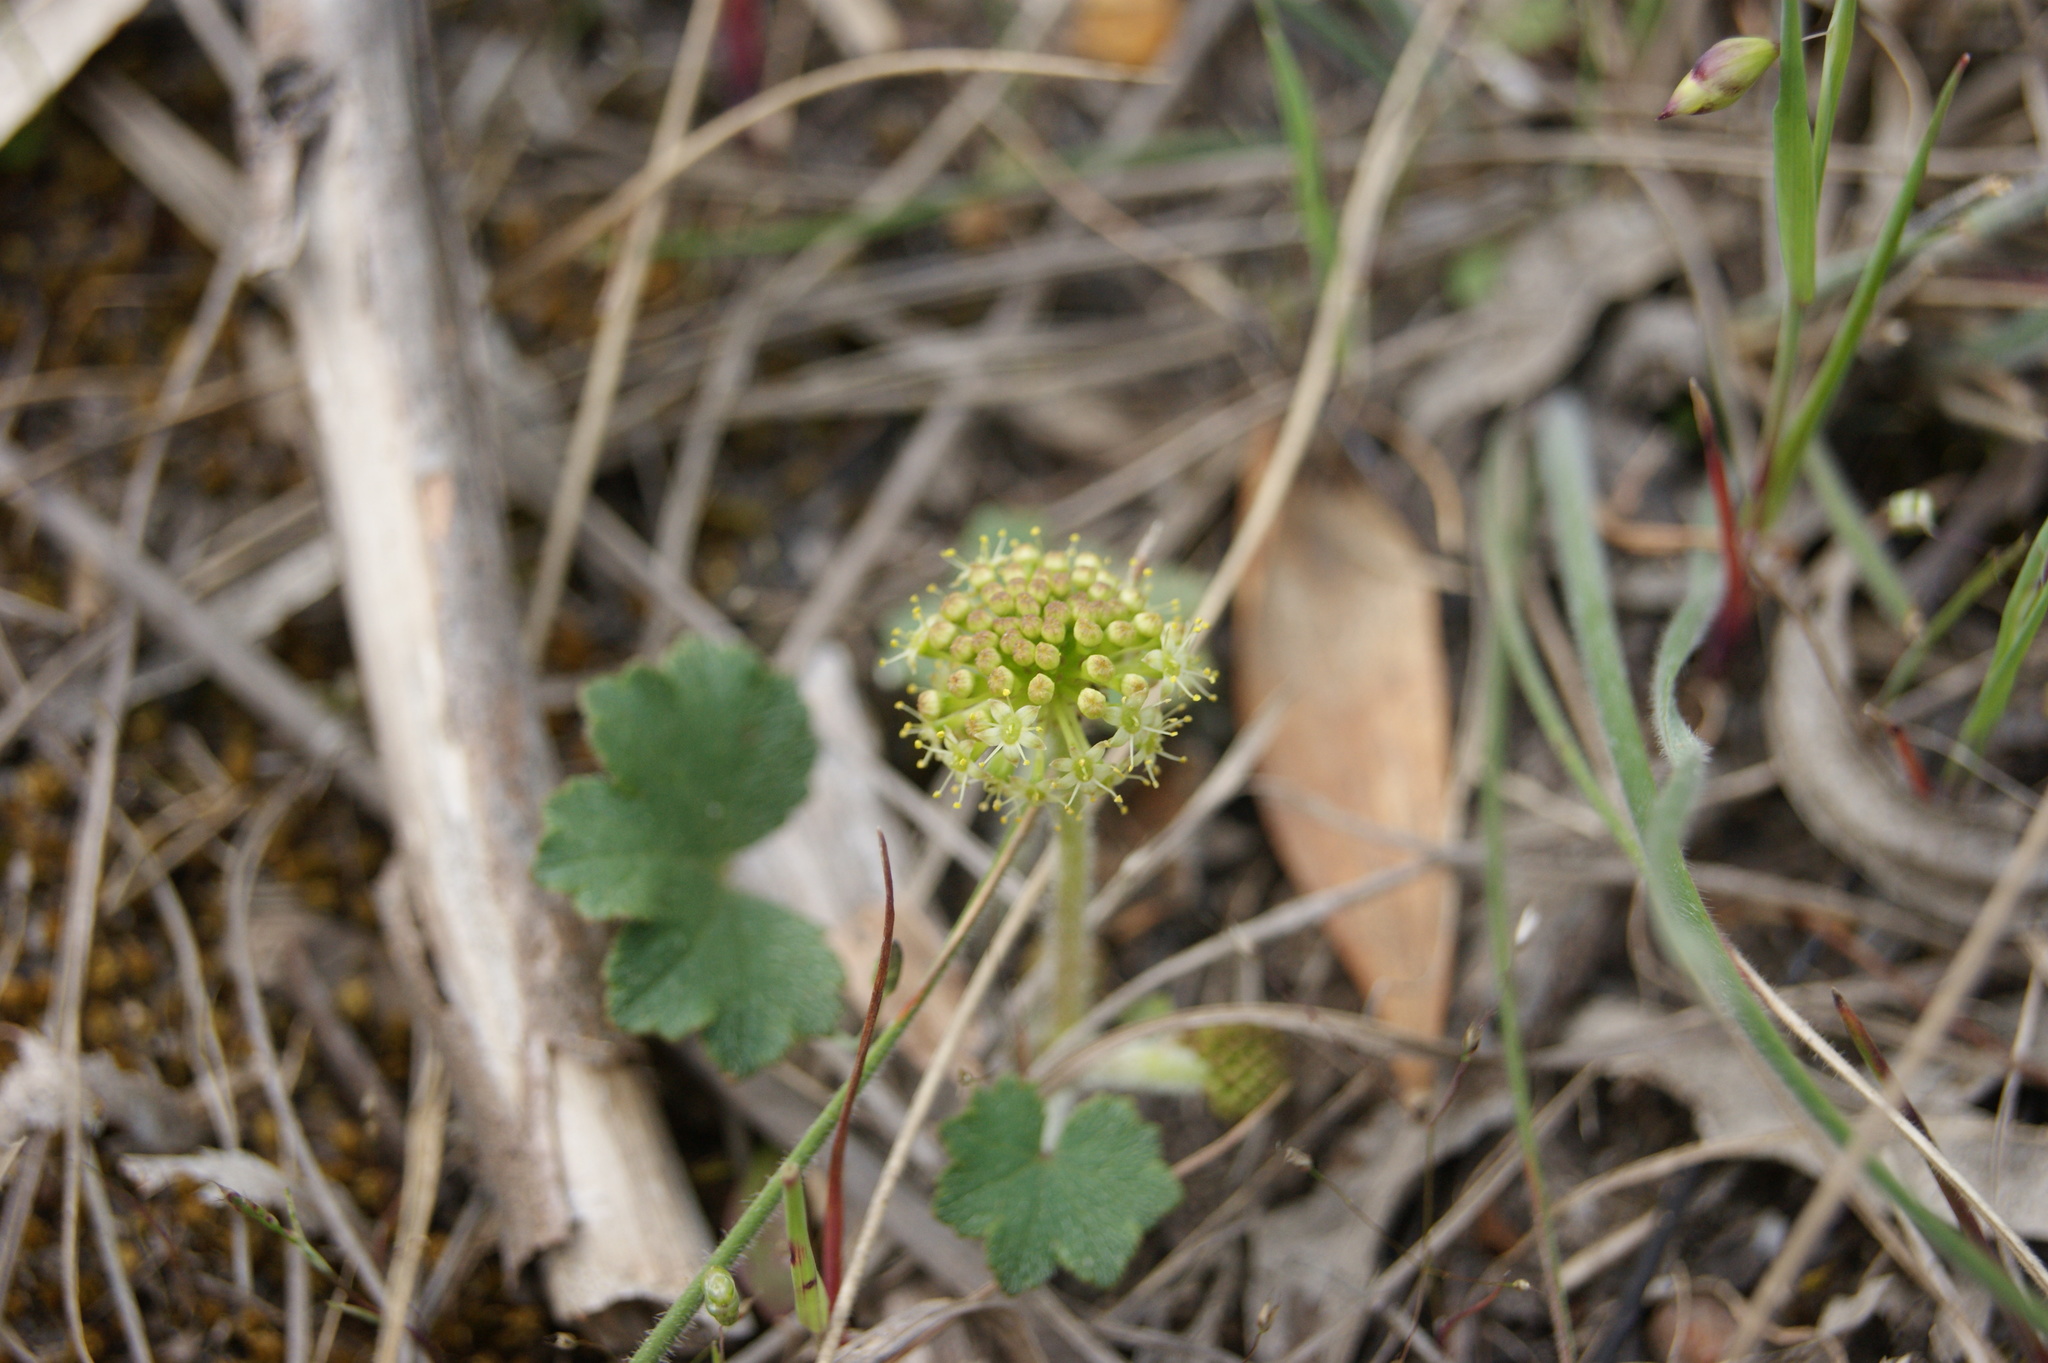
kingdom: Plantae
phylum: Tracheophyta
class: Magnoliopsida
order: Apiales
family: Araliaceae
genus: Hydrocotyle
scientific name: Hydrocotyle laxiflora
